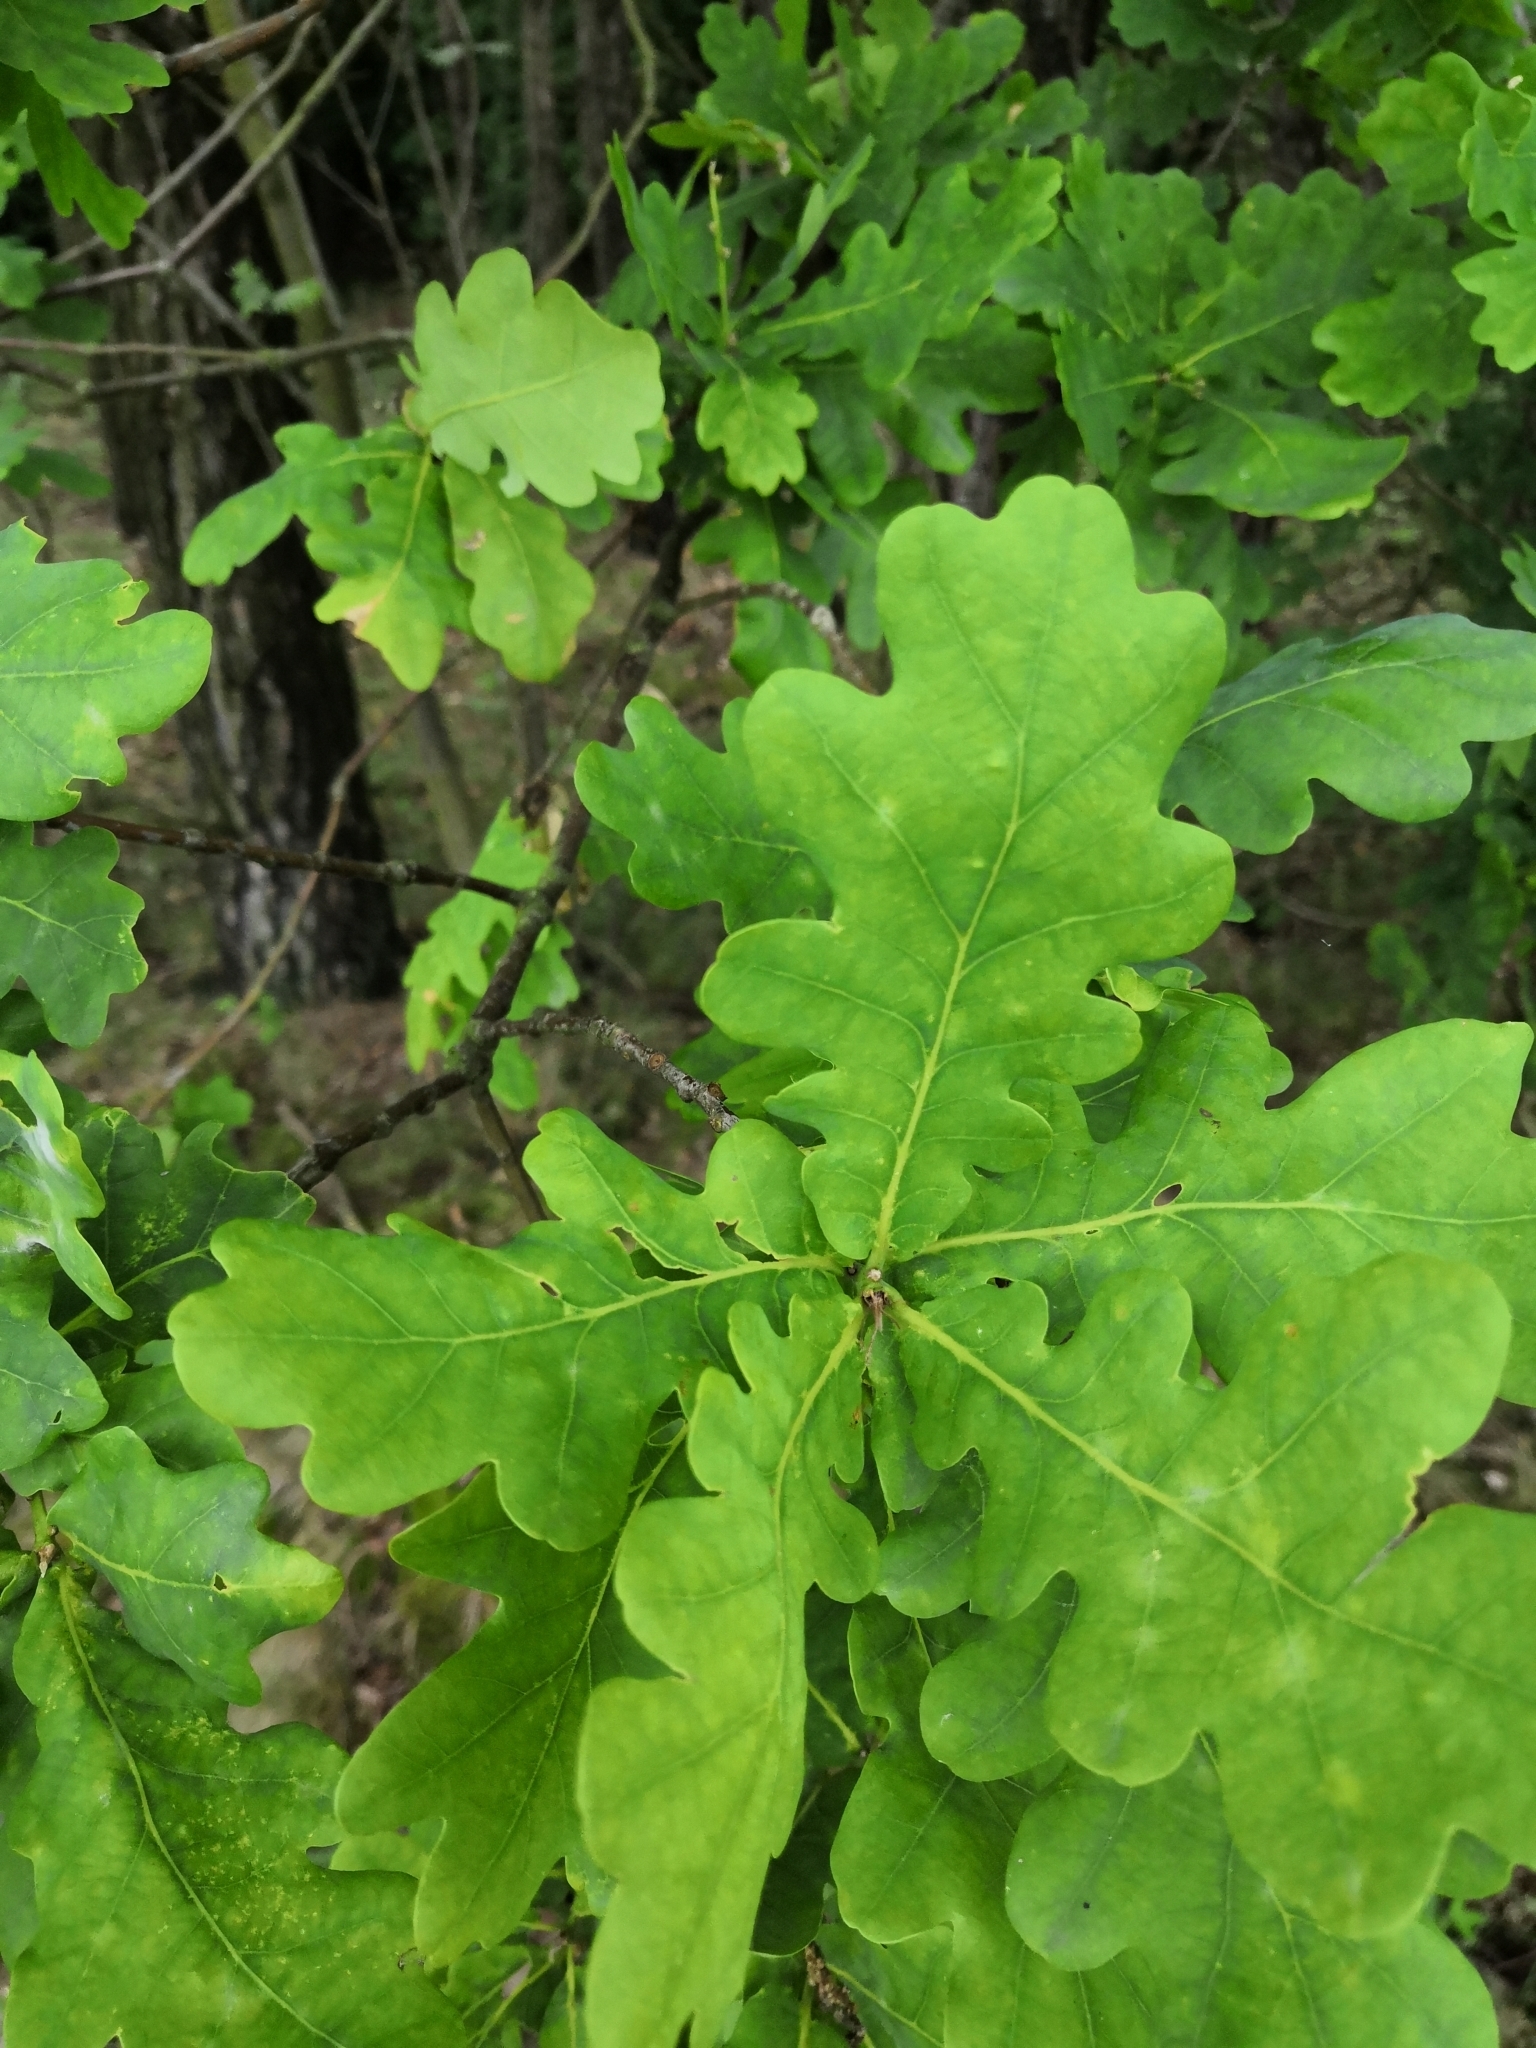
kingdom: Plantae
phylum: Tracheophyta
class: Magnoliopsida
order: Fagales
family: Fagaceae
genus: Quercus
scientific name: Quercus robur
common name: Pedunculate oak
